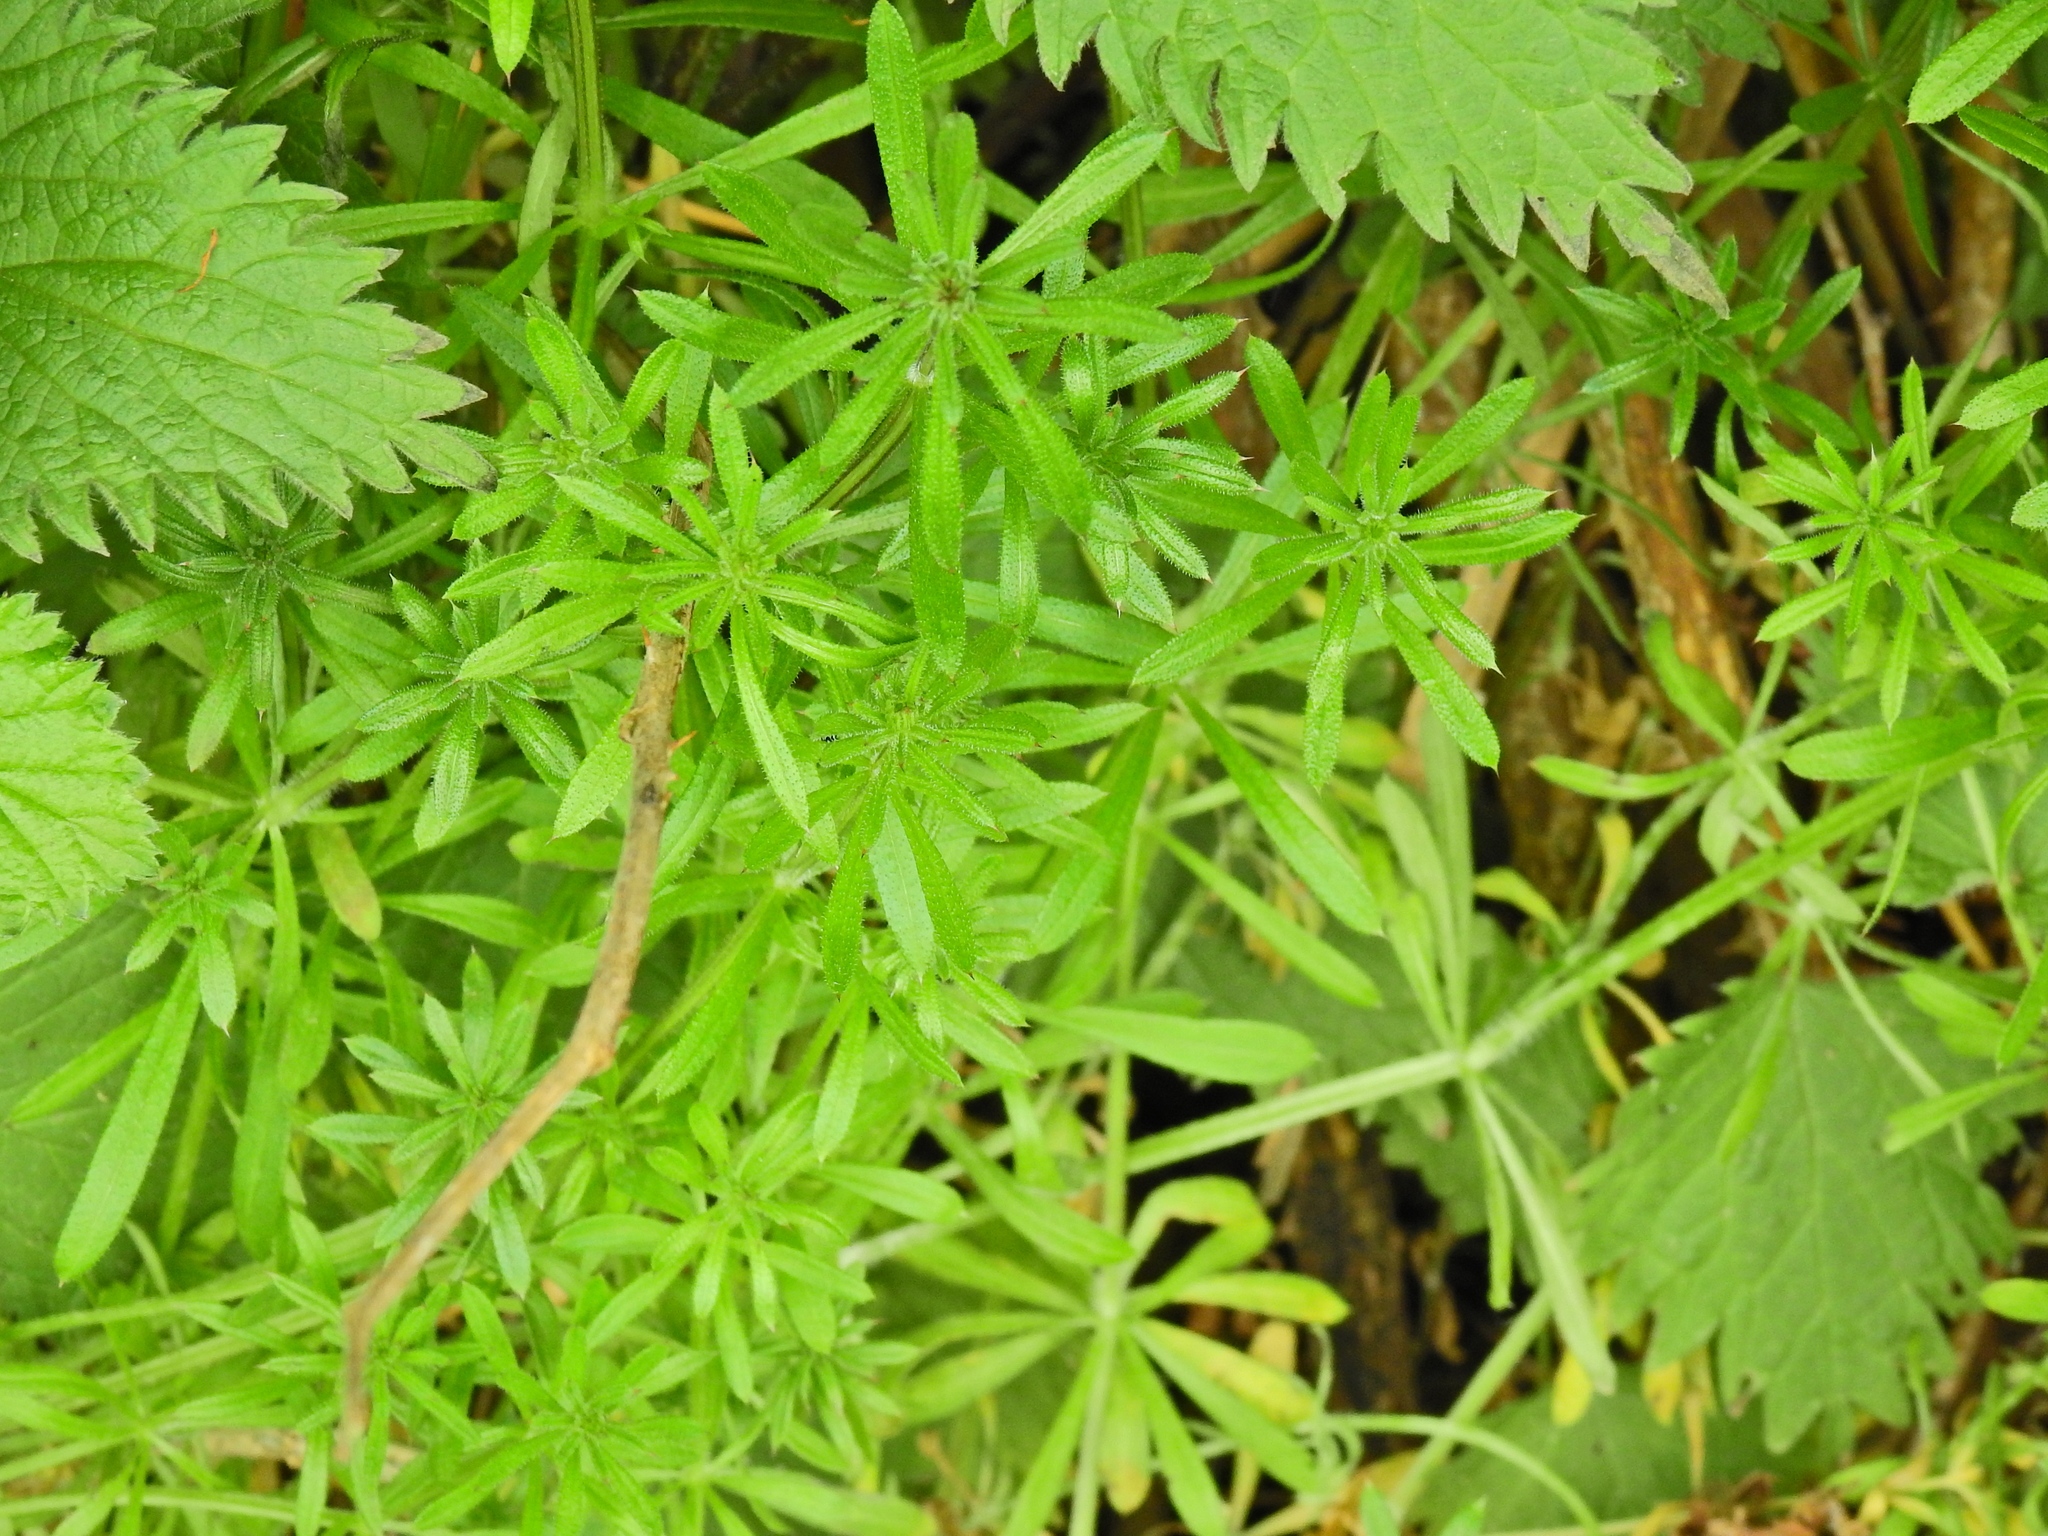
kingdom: Plantae
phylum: Tracheophyta
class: Magnoliopsida
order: Gentianales
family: Rubiaceae
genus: Galium
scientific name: Galium aparine
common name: Cleavers
